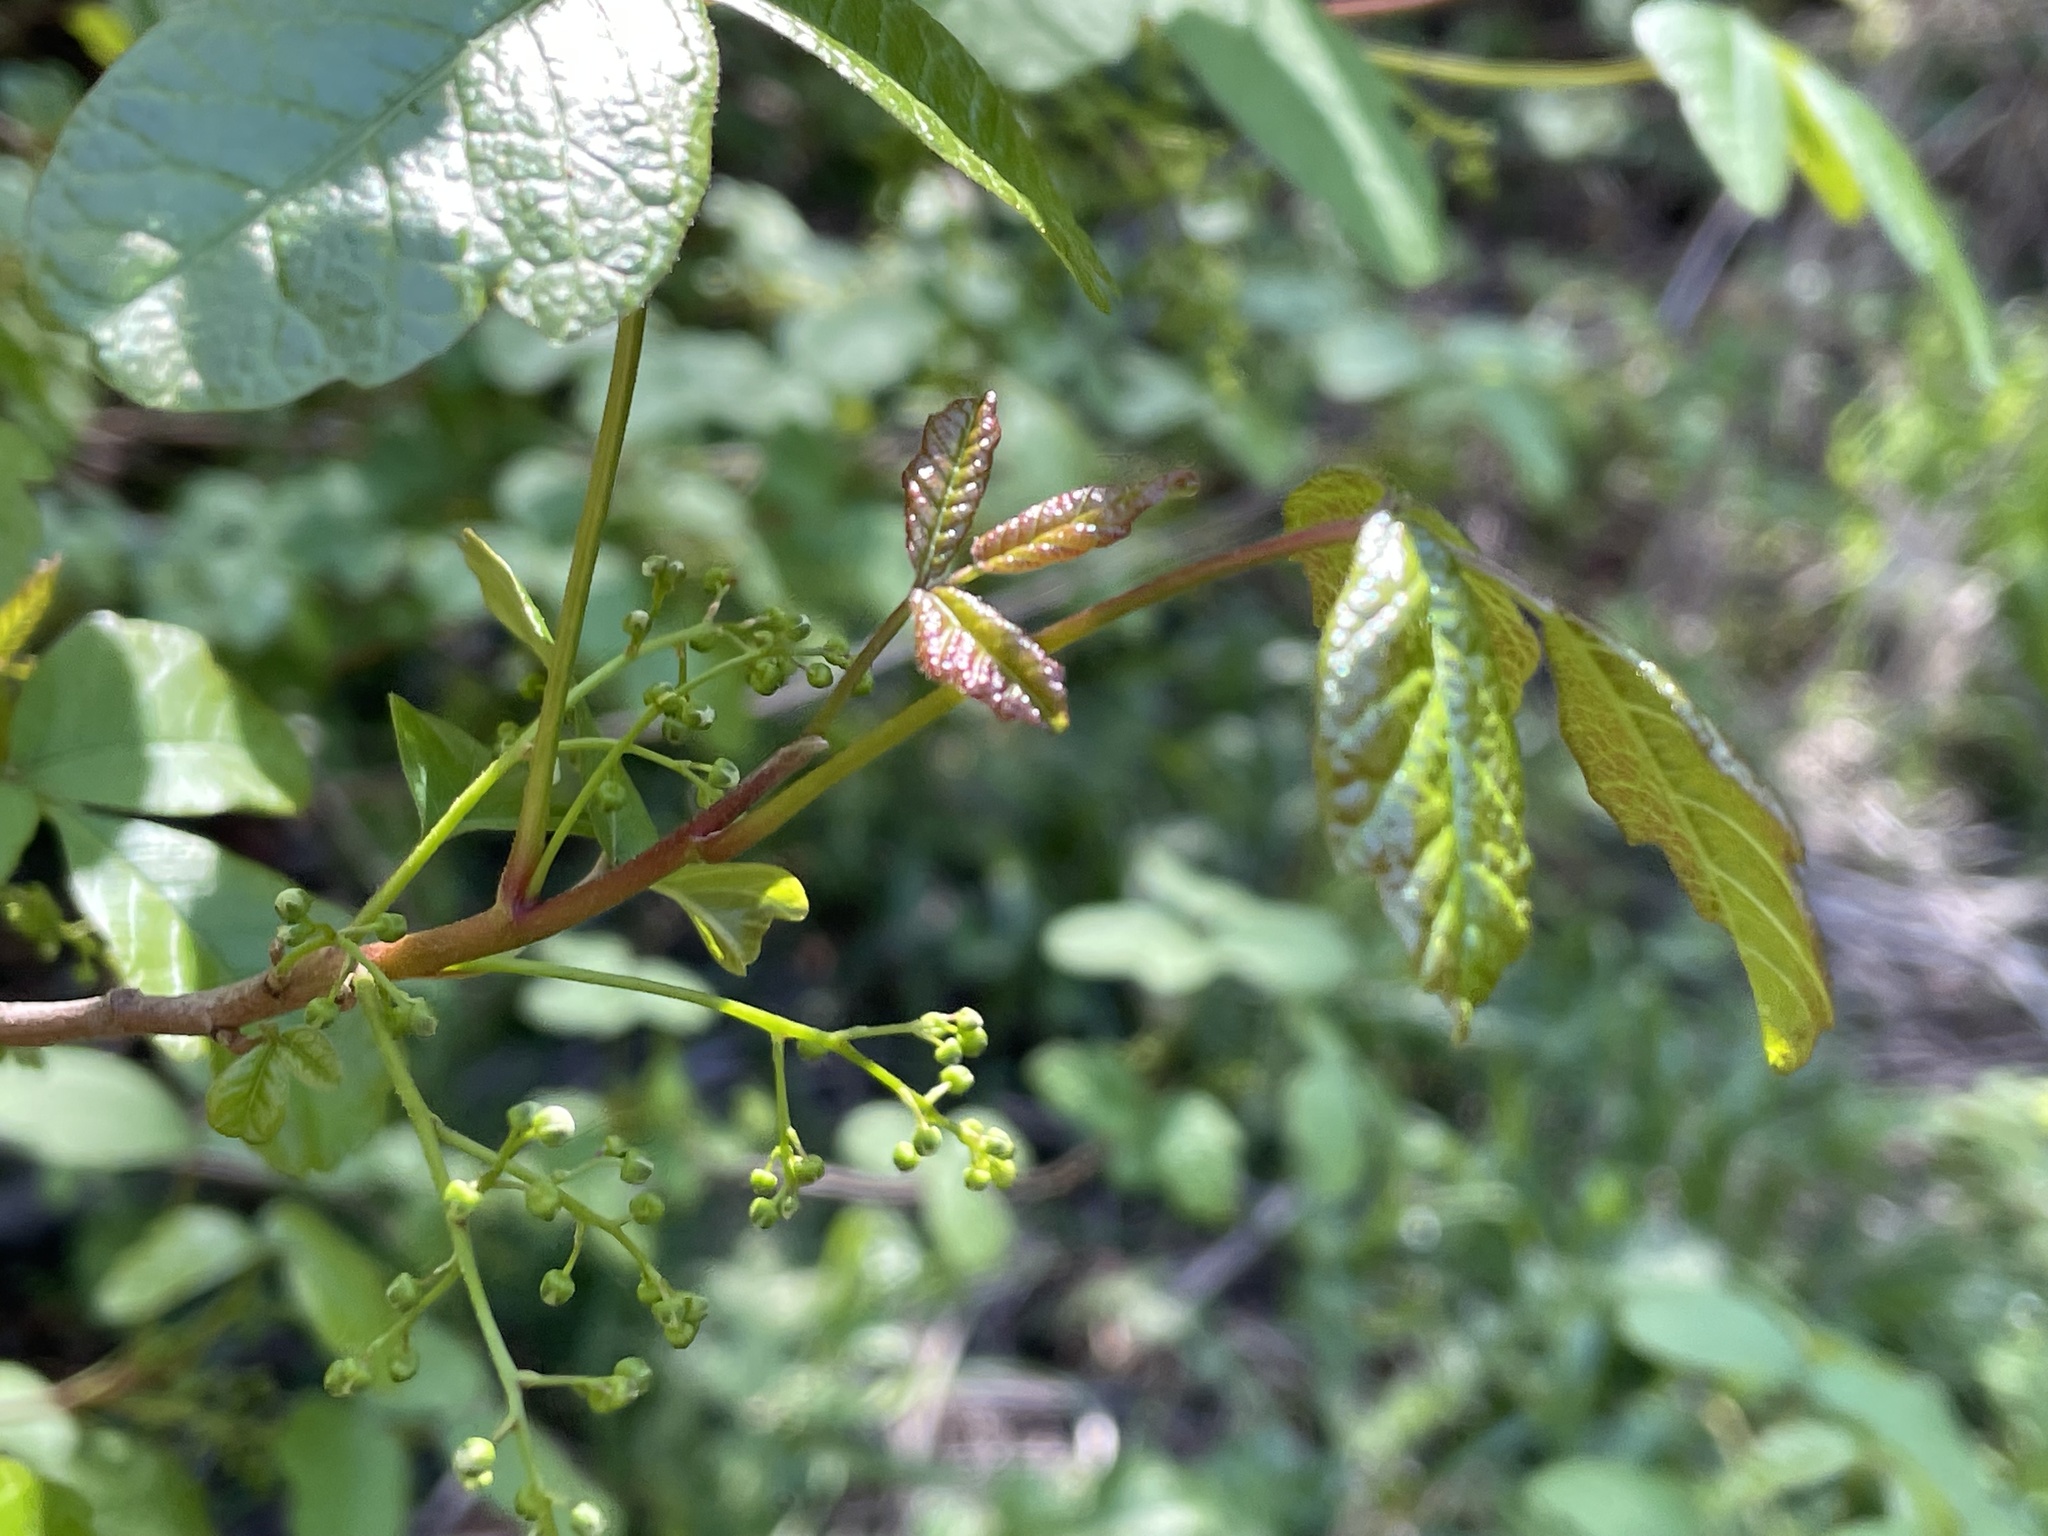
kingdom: Plantae
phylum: Tracheophyta
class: Magnoliopsida
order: Sapindales
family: Anacardiaceae
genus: Toxicodendron
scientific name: Toxicodendron diversilobum
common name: Pacific poison-oak
